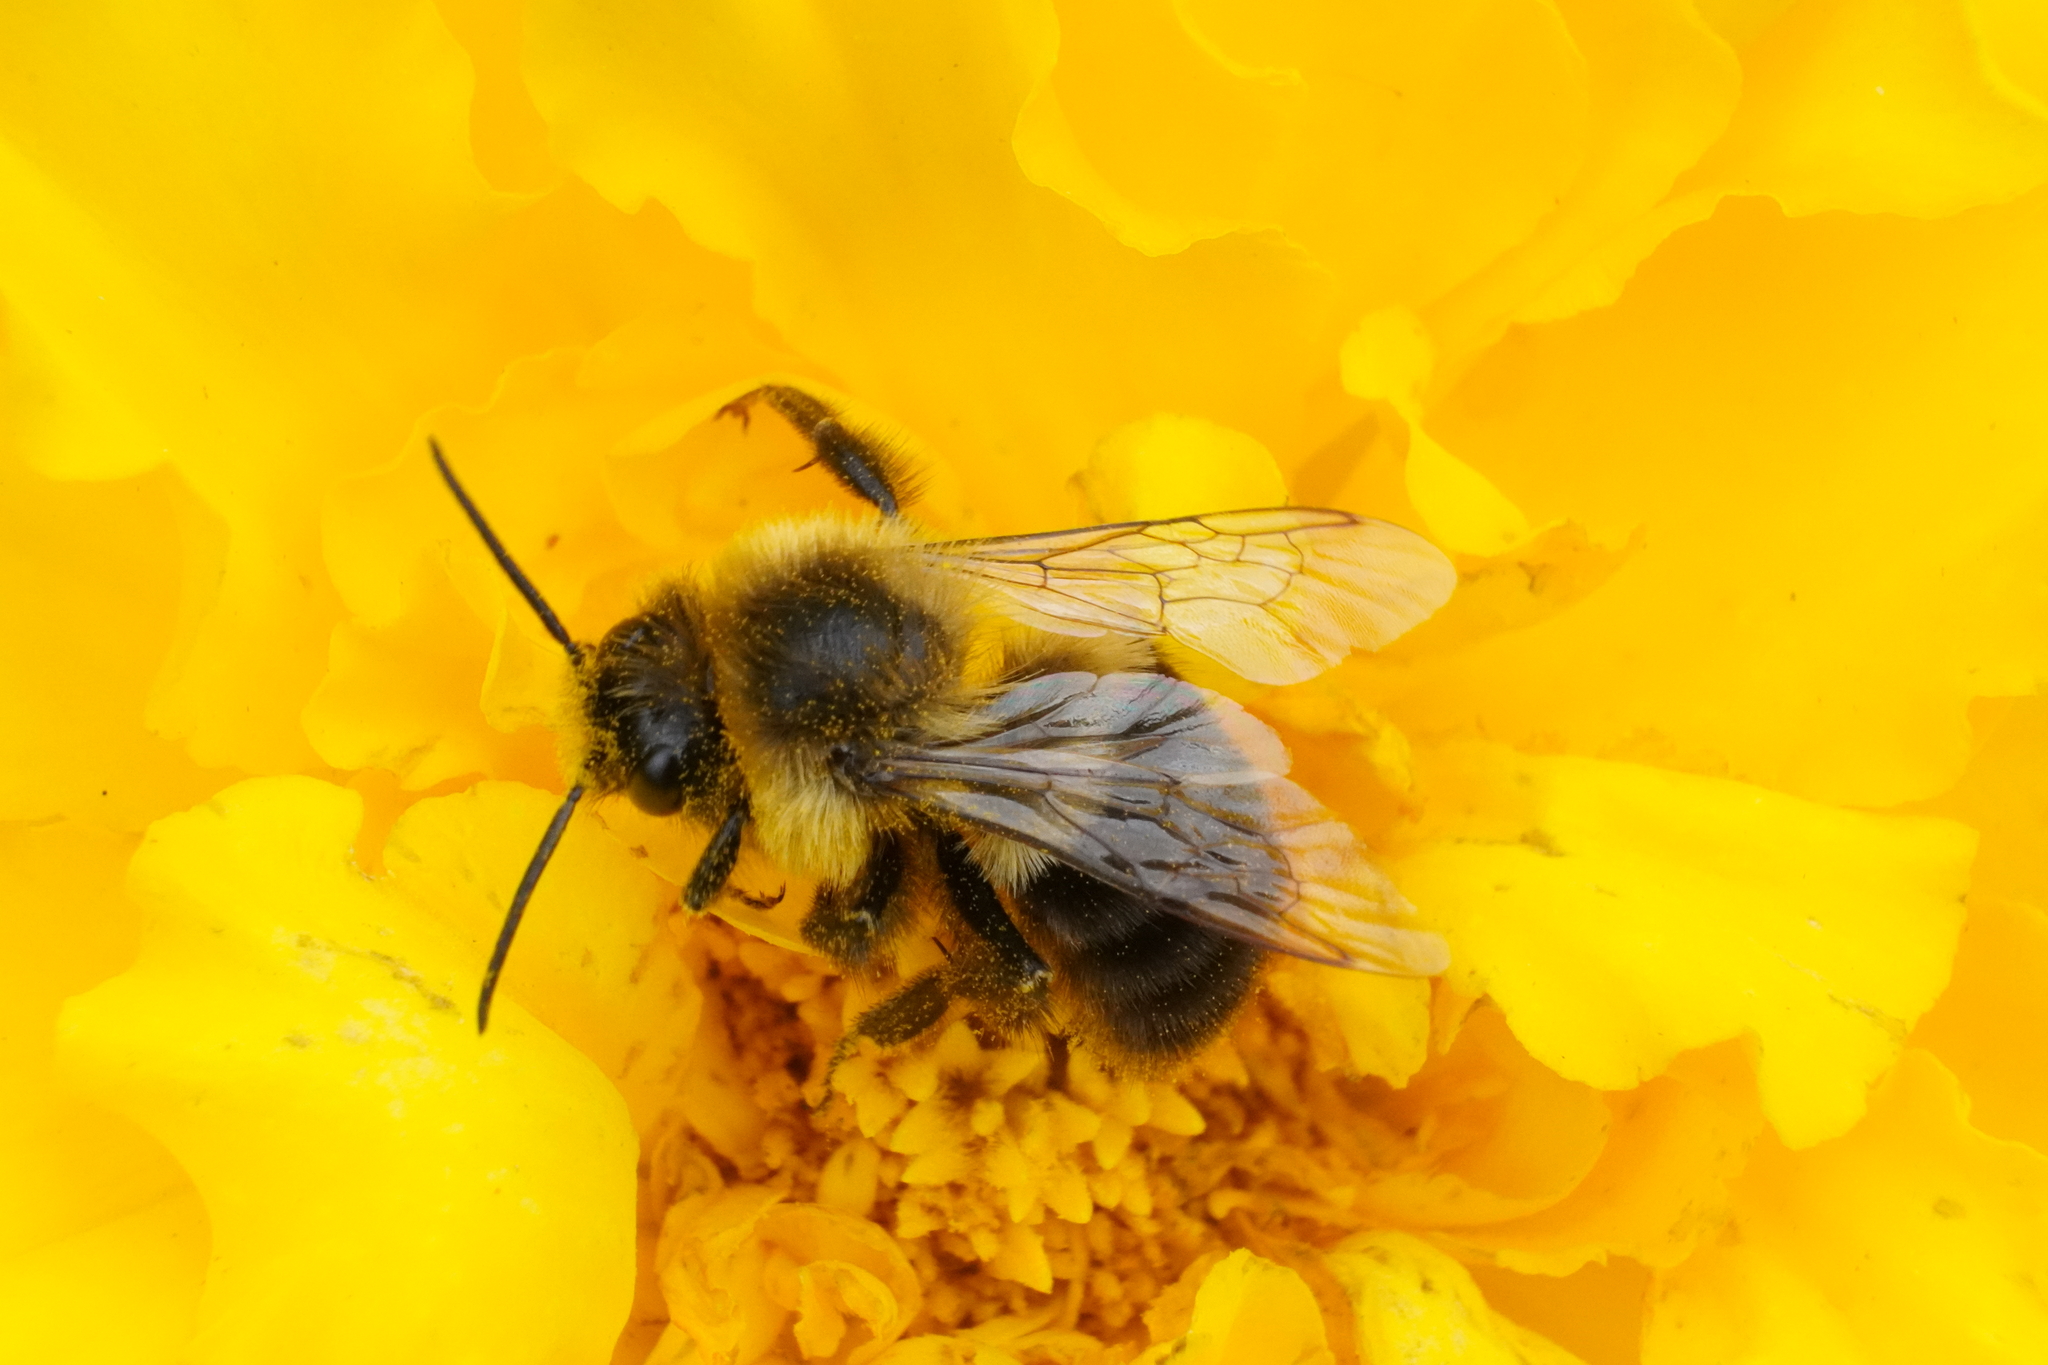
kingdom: Animalia
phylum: Arthropoda
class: Insecta
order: Hymenoptera
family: Apidae
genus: Bombus
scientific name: Bombus impatiens
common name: Common eastern bumble bee
